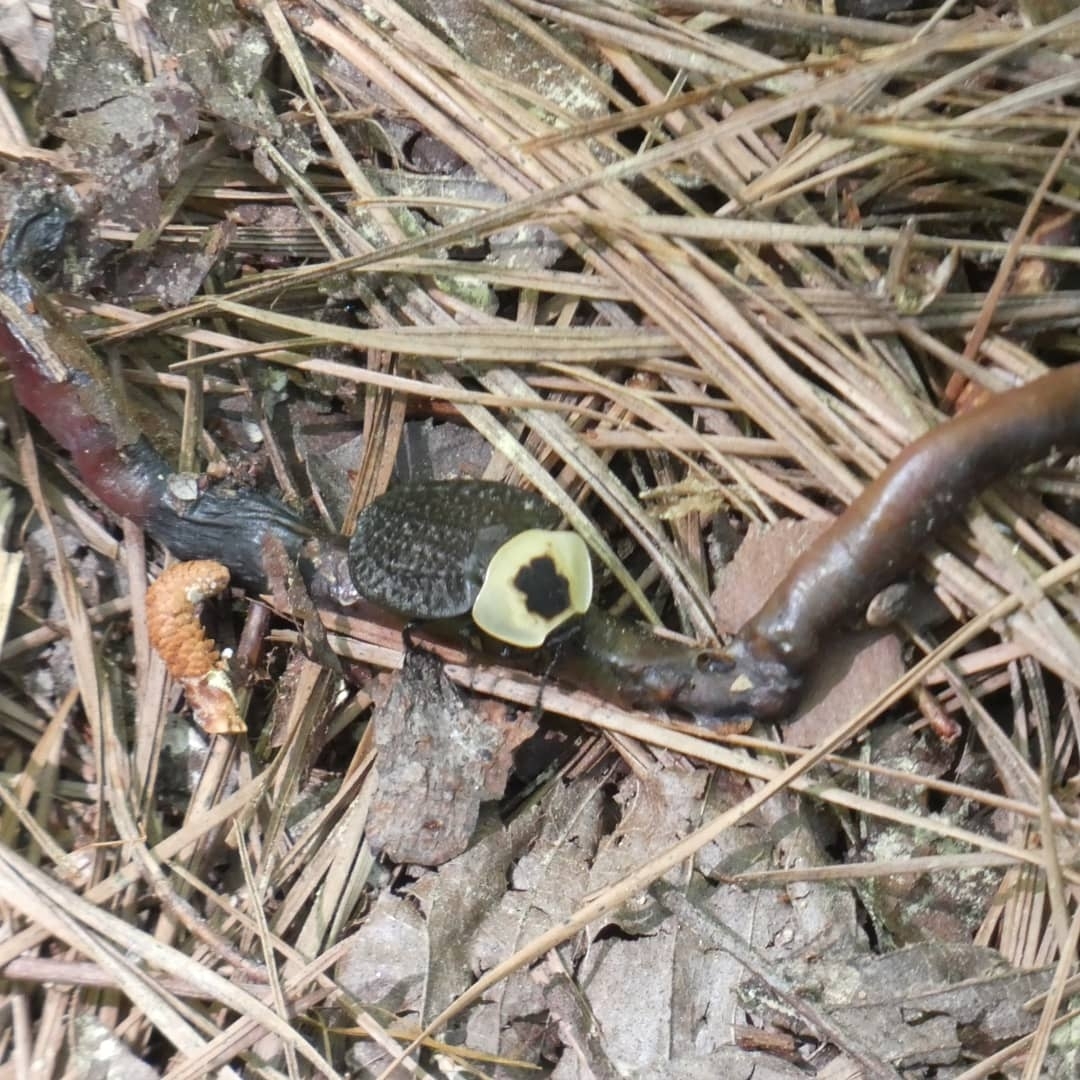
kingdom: Animalia
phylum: Arthropoda
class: Insecta
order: Coleoptera
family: Staphylinidae
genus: Necrophila
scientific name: Necrophila americana
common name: American carrion beetle
